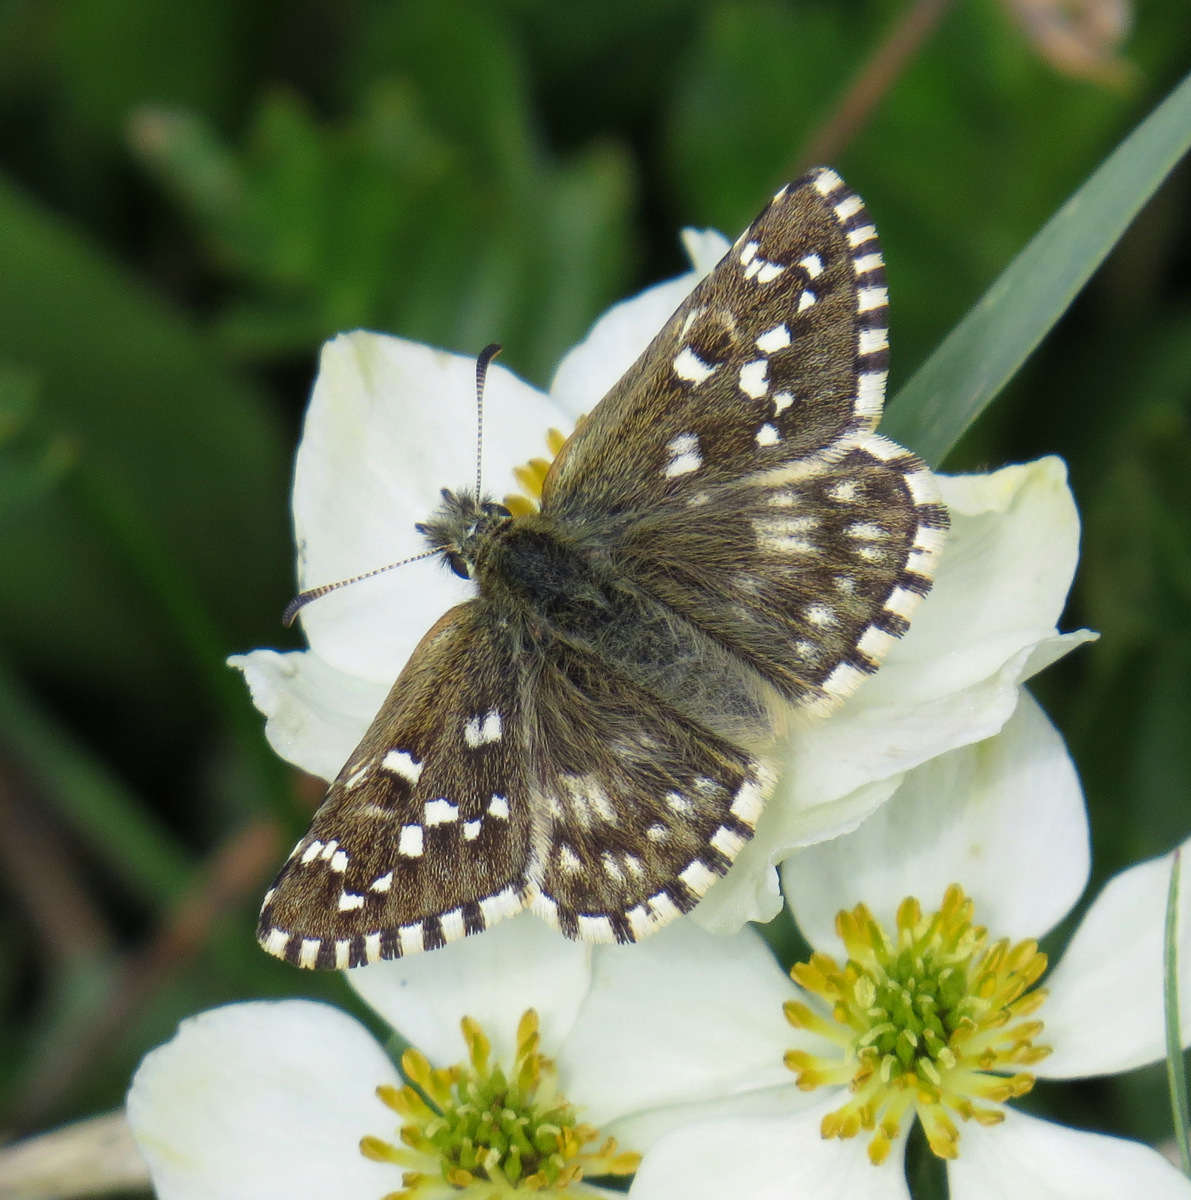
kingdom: Animalia
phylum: Arthropoda
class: Insecta
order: Lepidoptera
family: Hesperiidae
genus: Pyrgus
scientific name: Pyrgus centaureae
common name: Northern grizzled skipper
